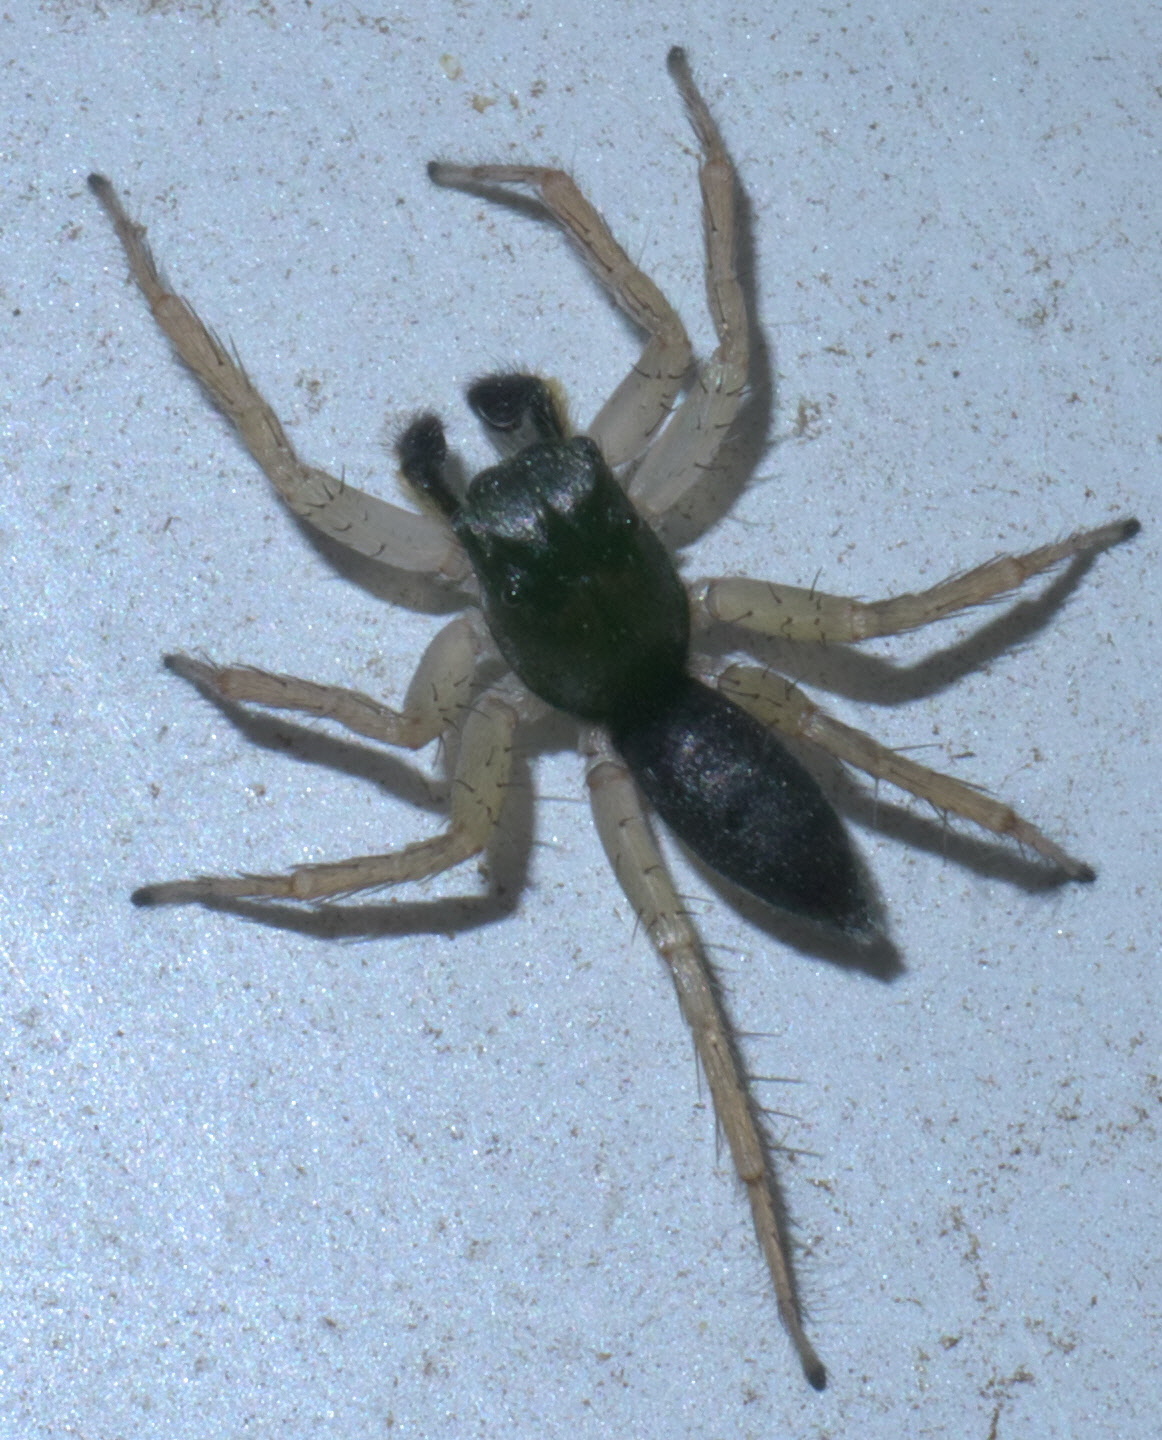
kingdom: Animalia
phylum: Arthropoda
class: Arachnida
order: Araneae
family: Salticidae
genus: Maevia
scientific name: Maevia inclemens
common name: Dimorphic jumper
